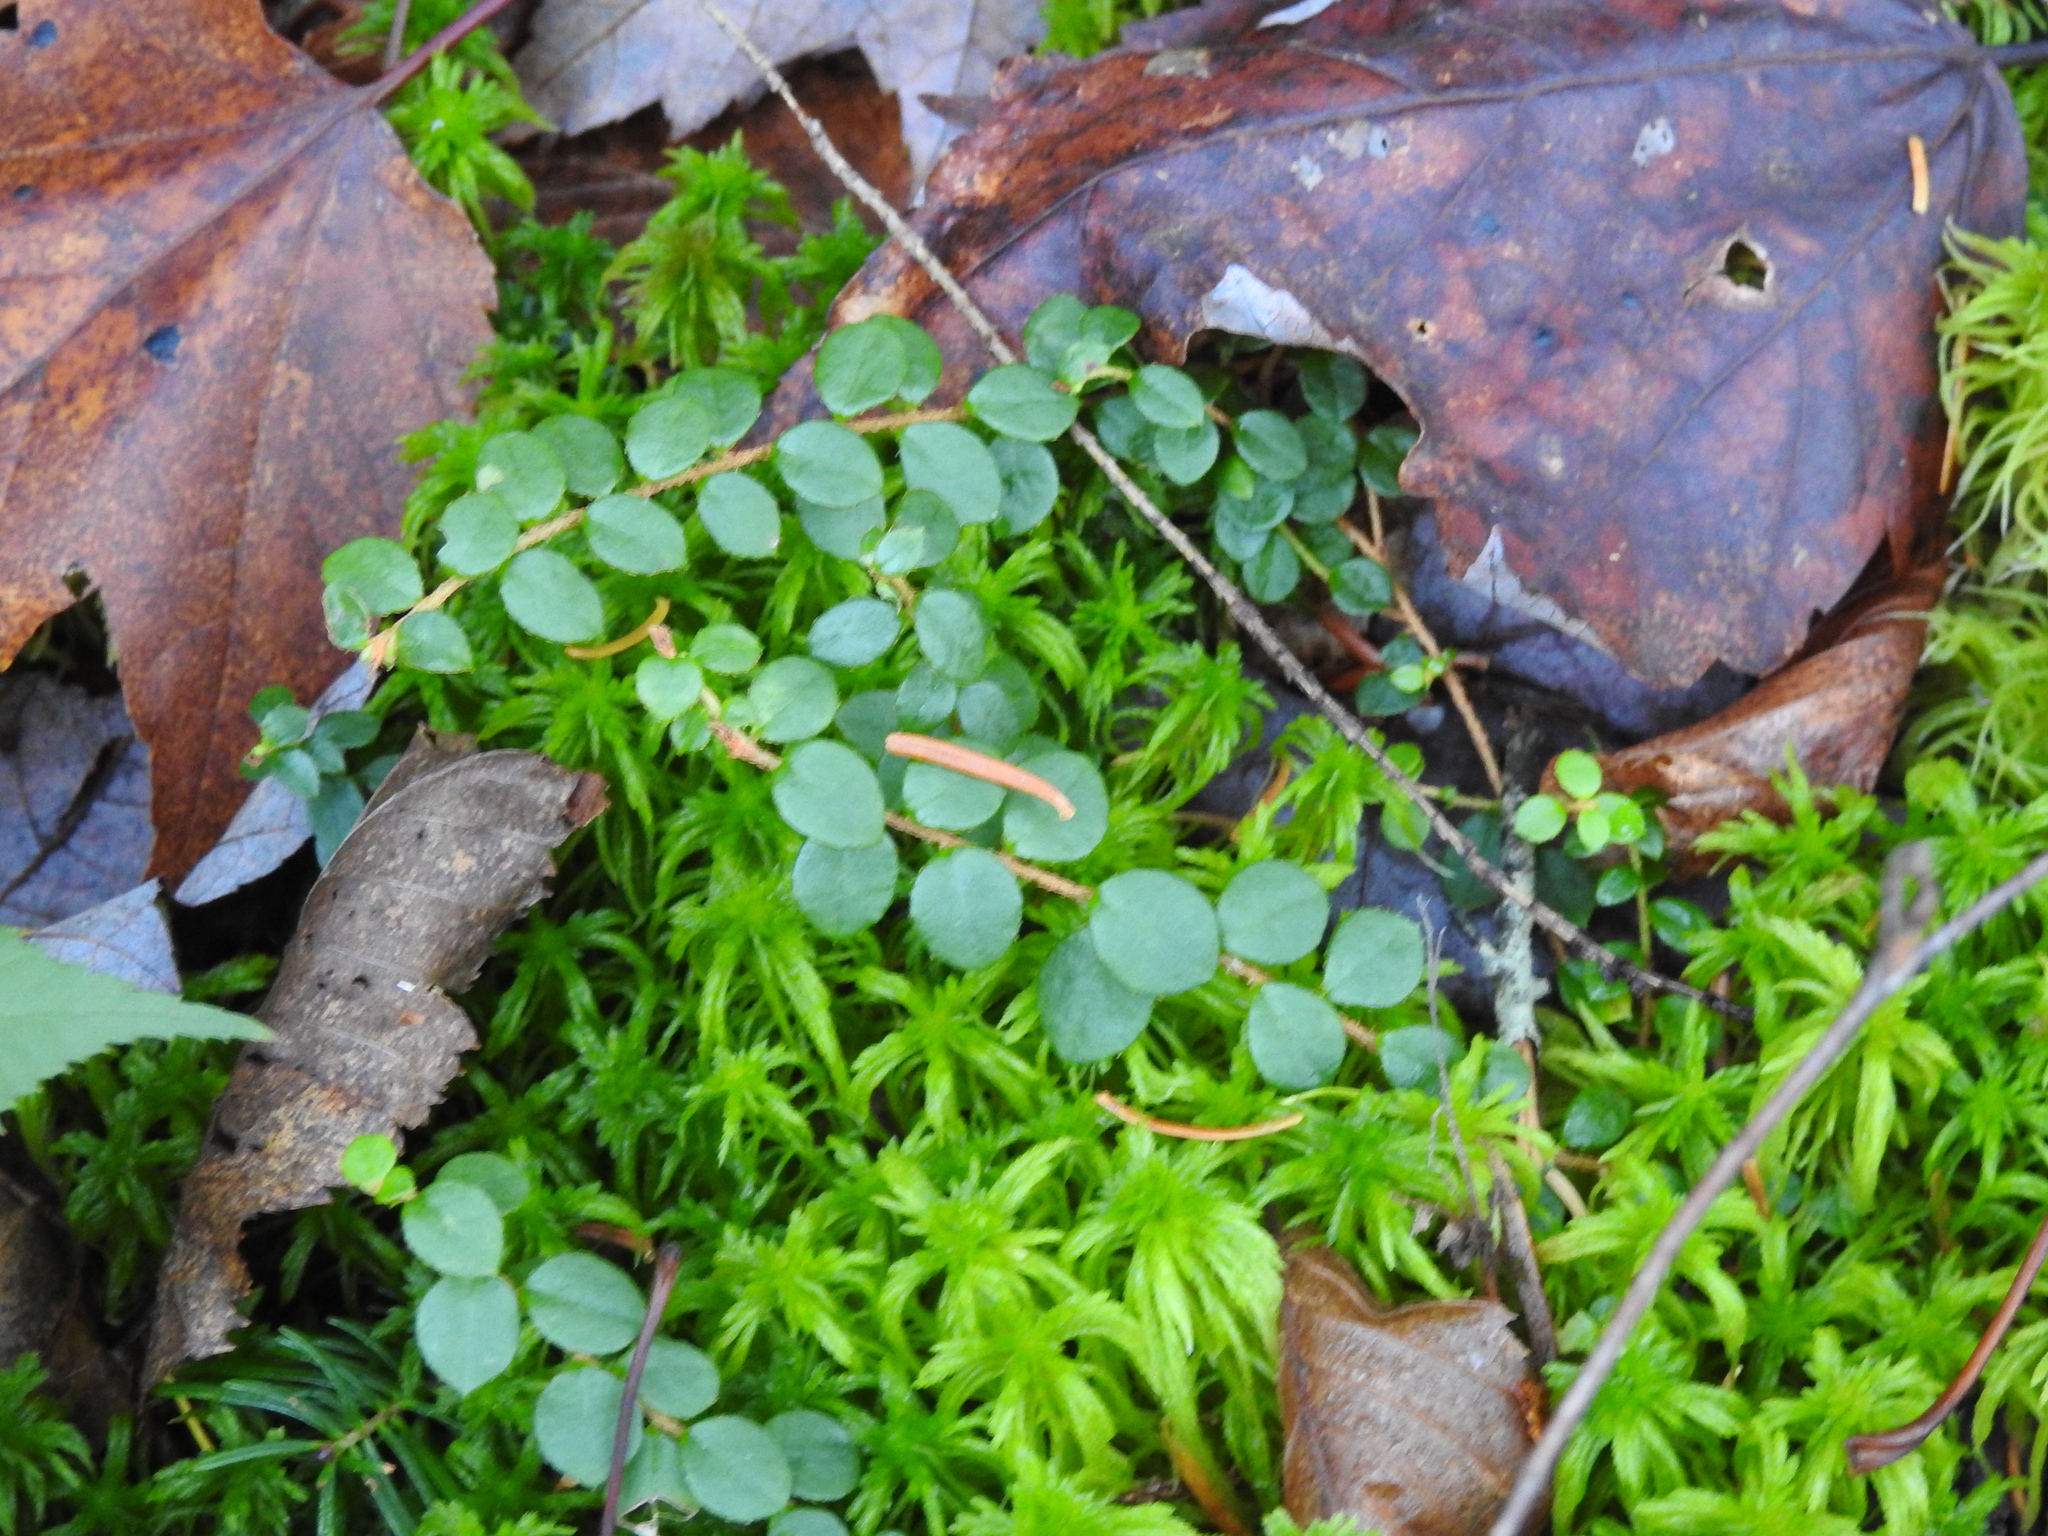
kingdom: Plantae
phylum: Tracheophyta
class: Magnoliopsida
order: Ericales
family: Ericaceae
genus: Gaultheria
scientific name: Gaultheria hispidula
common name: Cancer wintergreen
